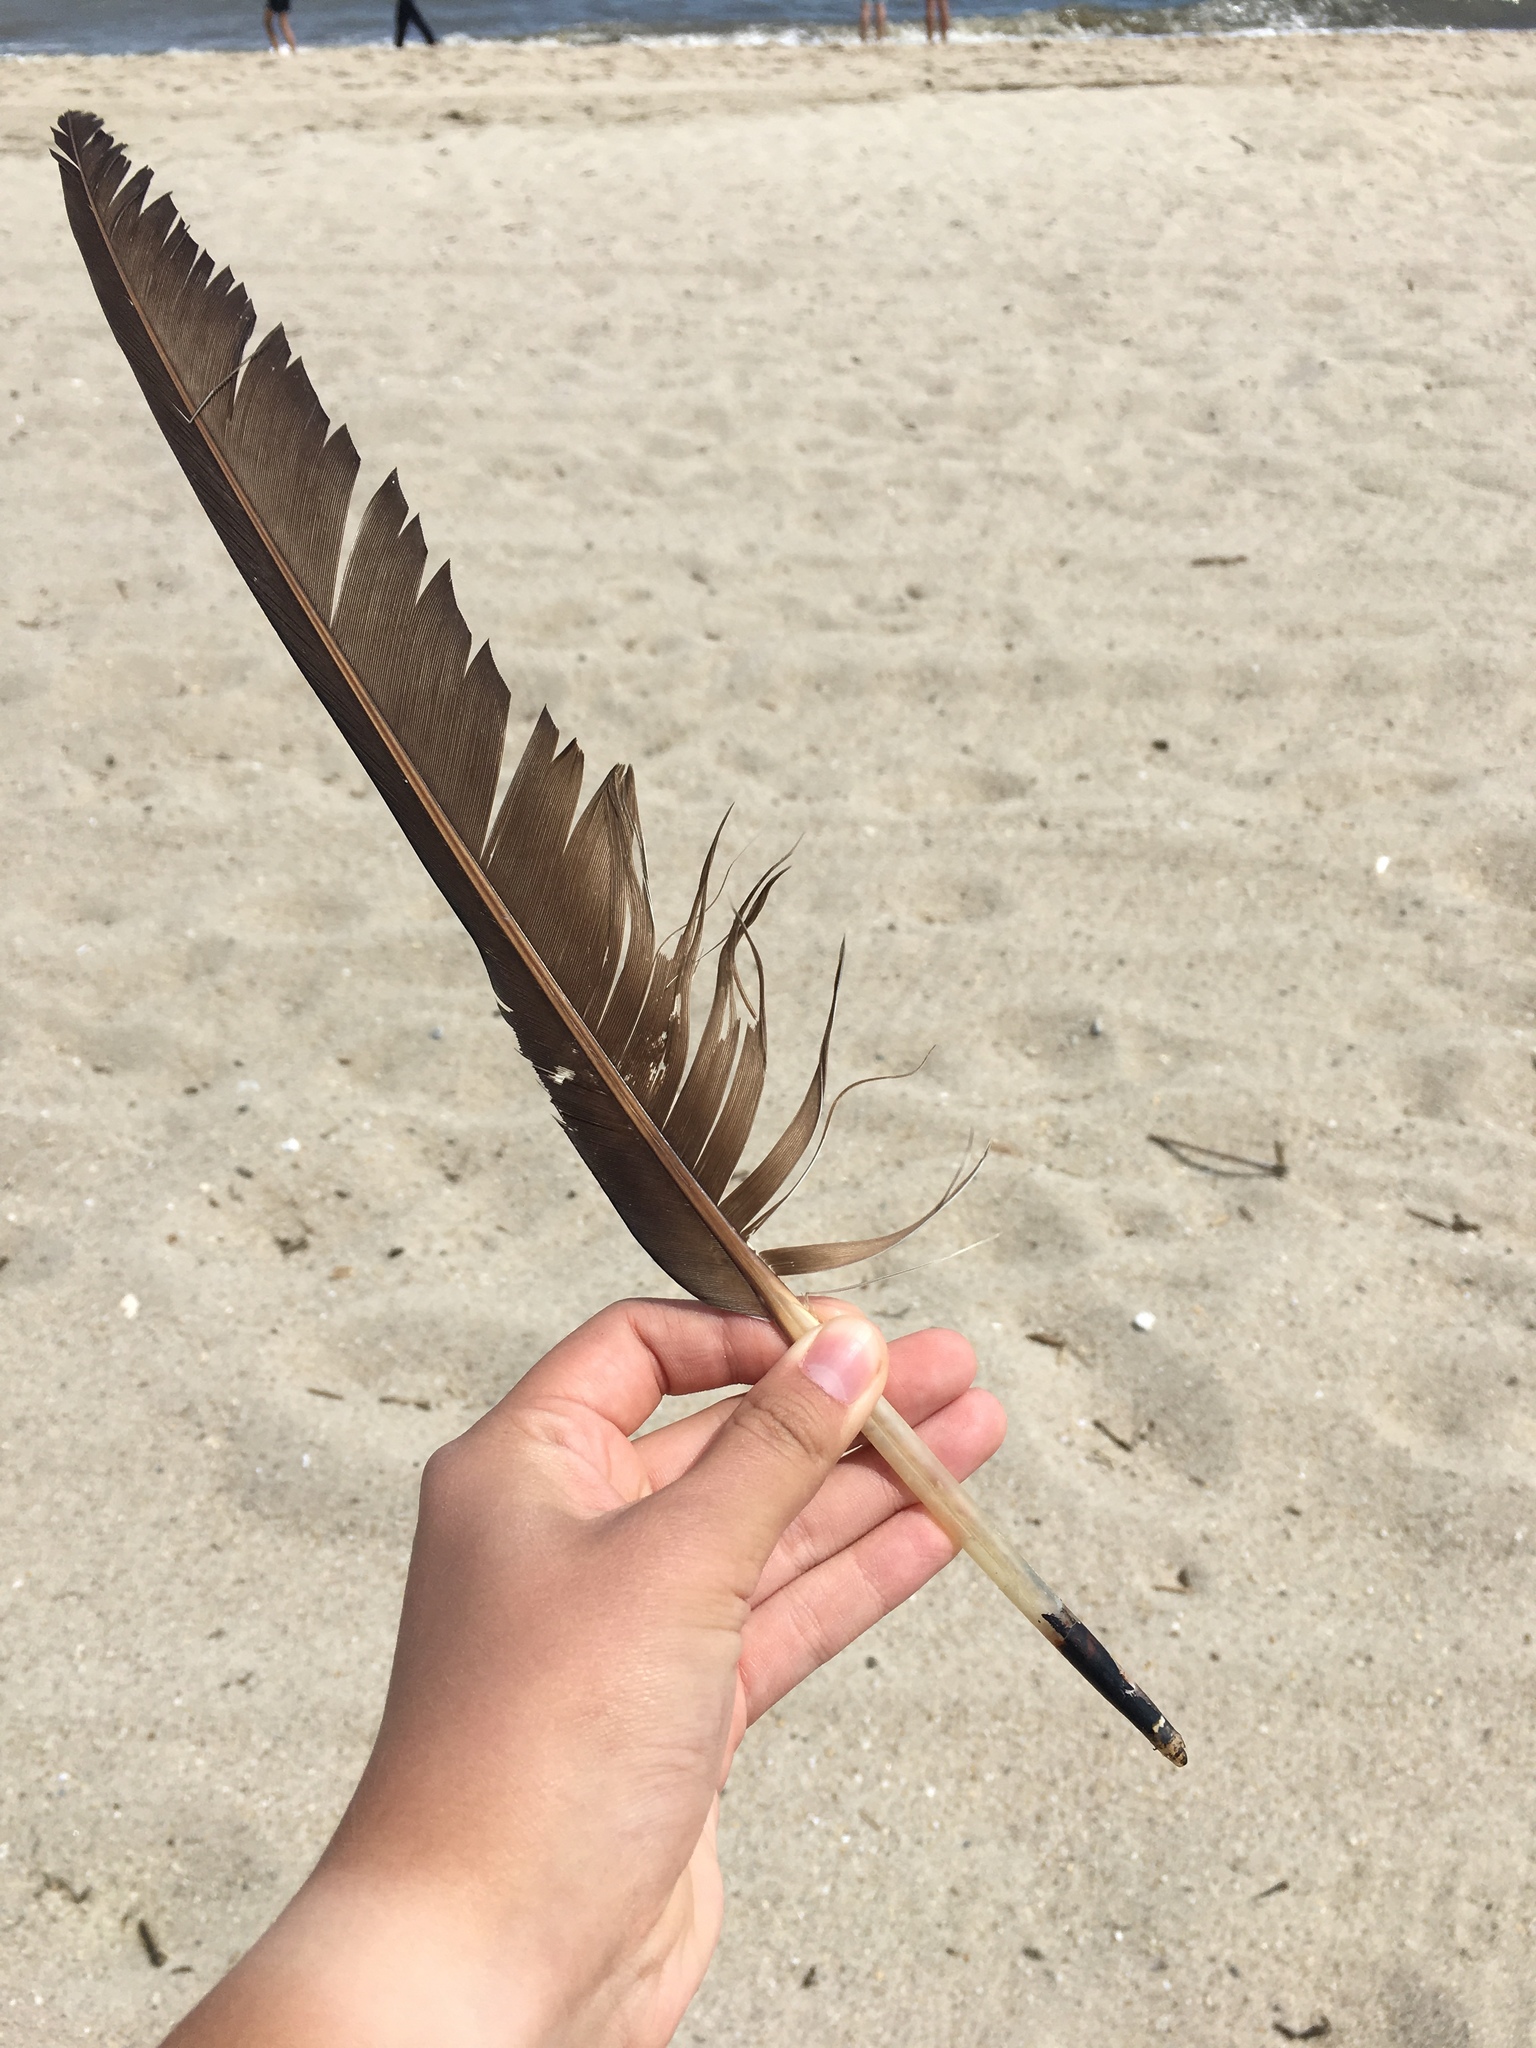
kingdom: Animalia
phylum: Chordata
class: Aves
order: Accipitriformes
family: Cathartidae
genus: Cathartes
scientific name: Cathartes aura
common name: Turkey vulture
